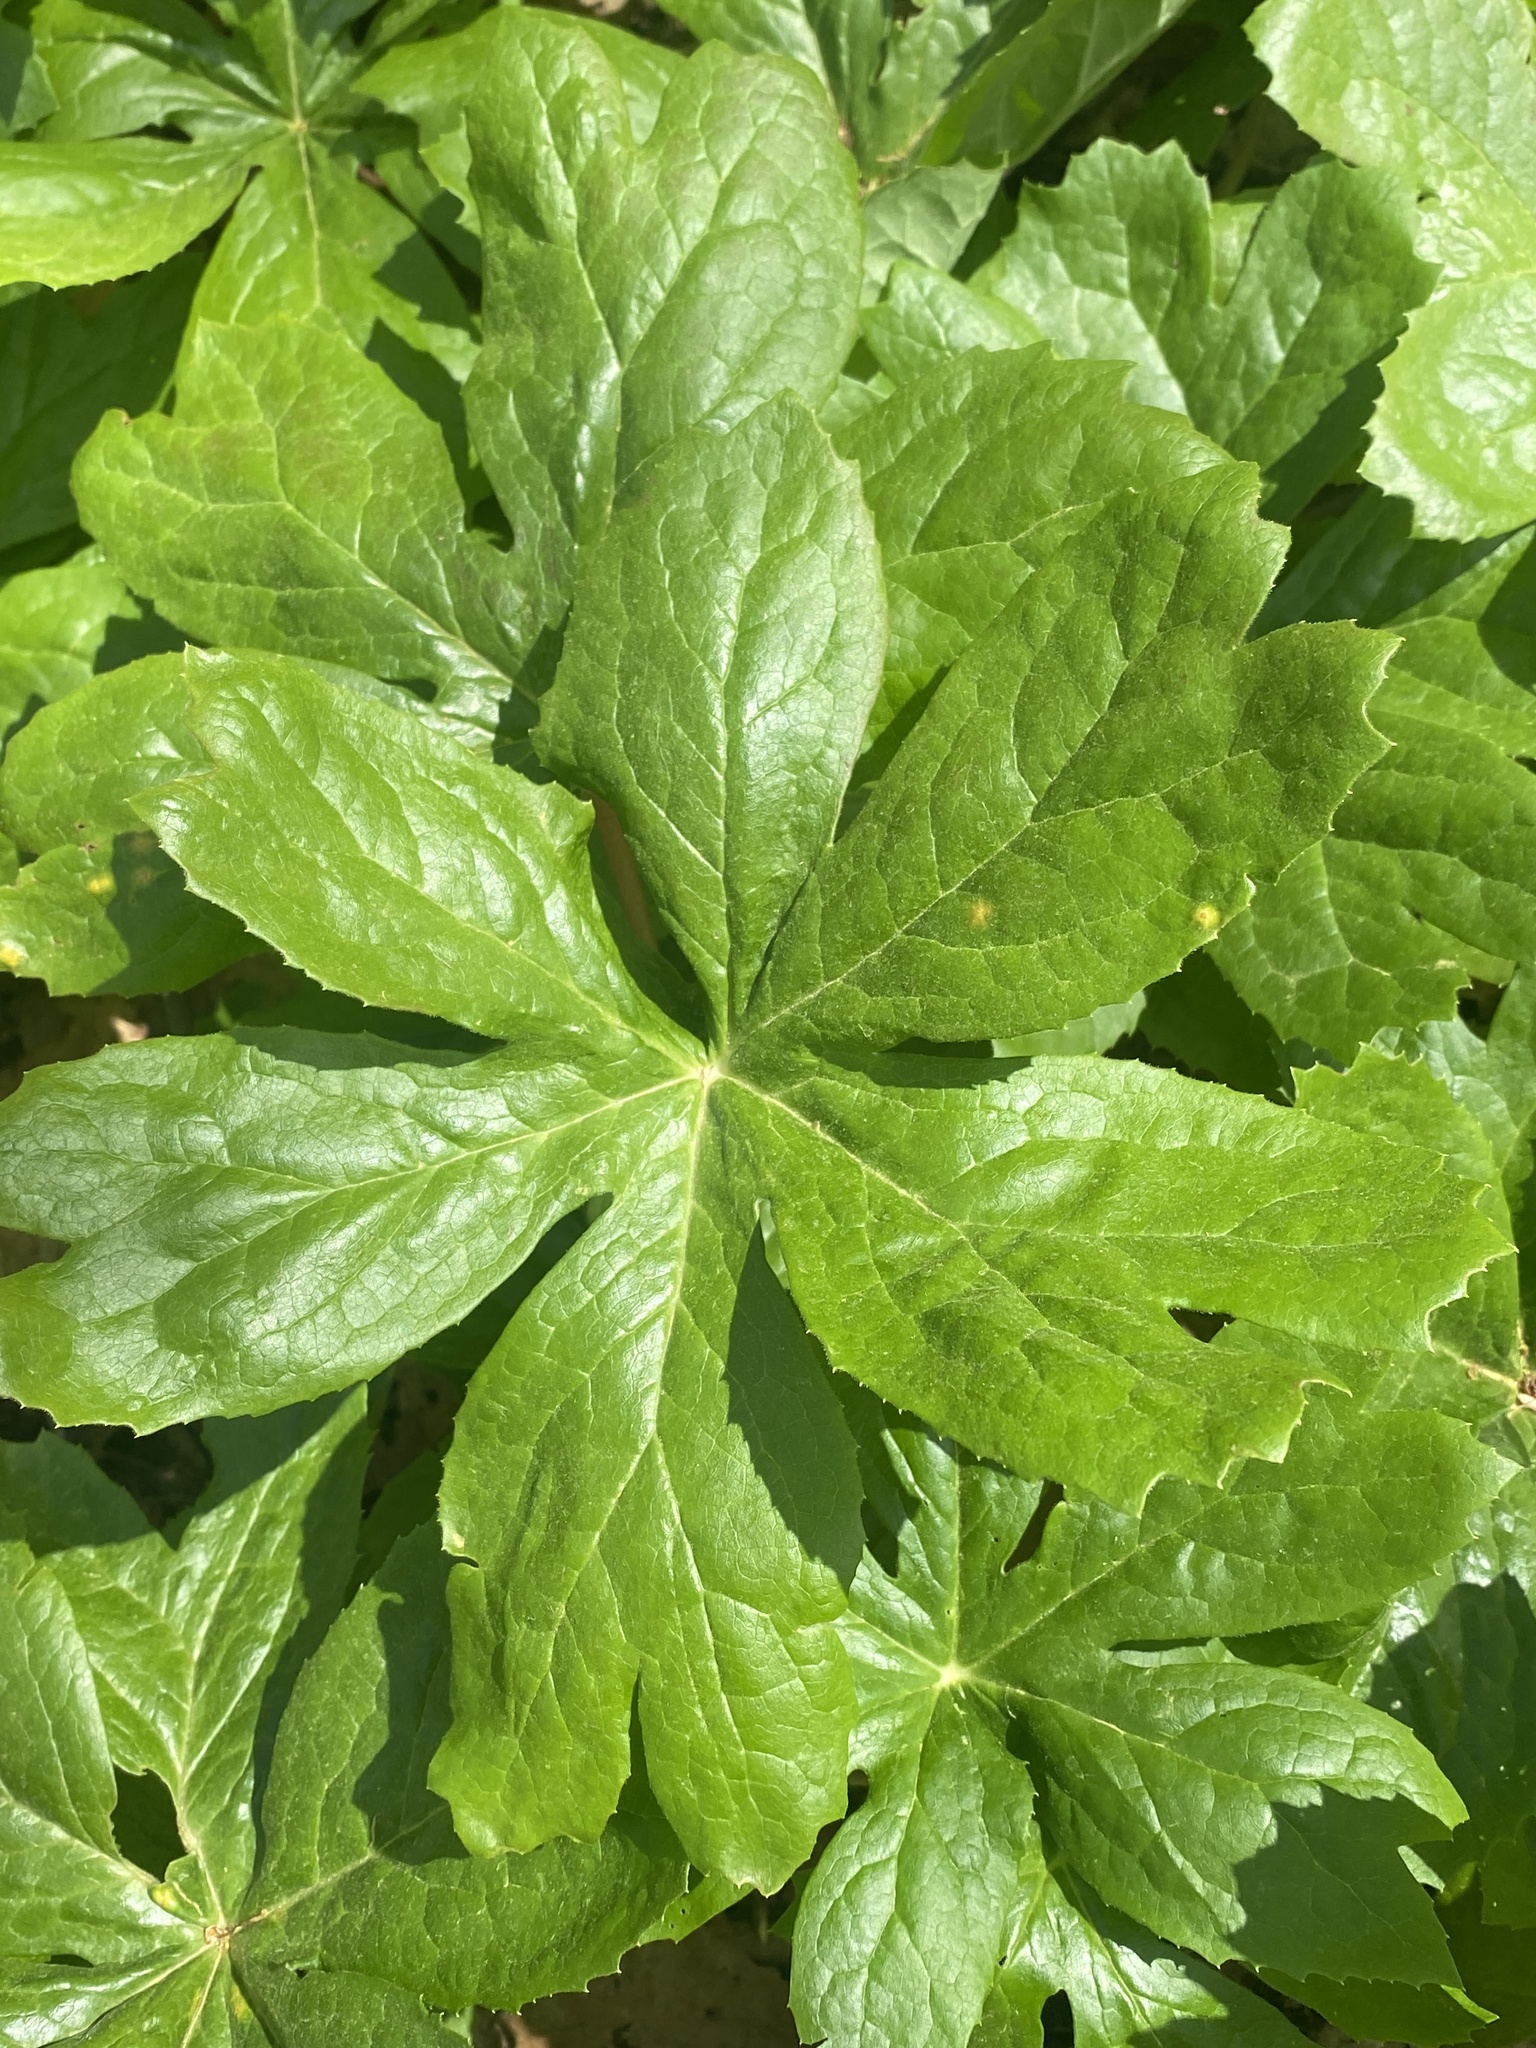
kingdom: Plantae
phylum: Tracheophyta
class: Magnoliopsida
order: Ranunculales
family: Berberidaceae
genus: Podophyllum
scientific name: Podophyllum peltatum
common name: Wild mandrake
